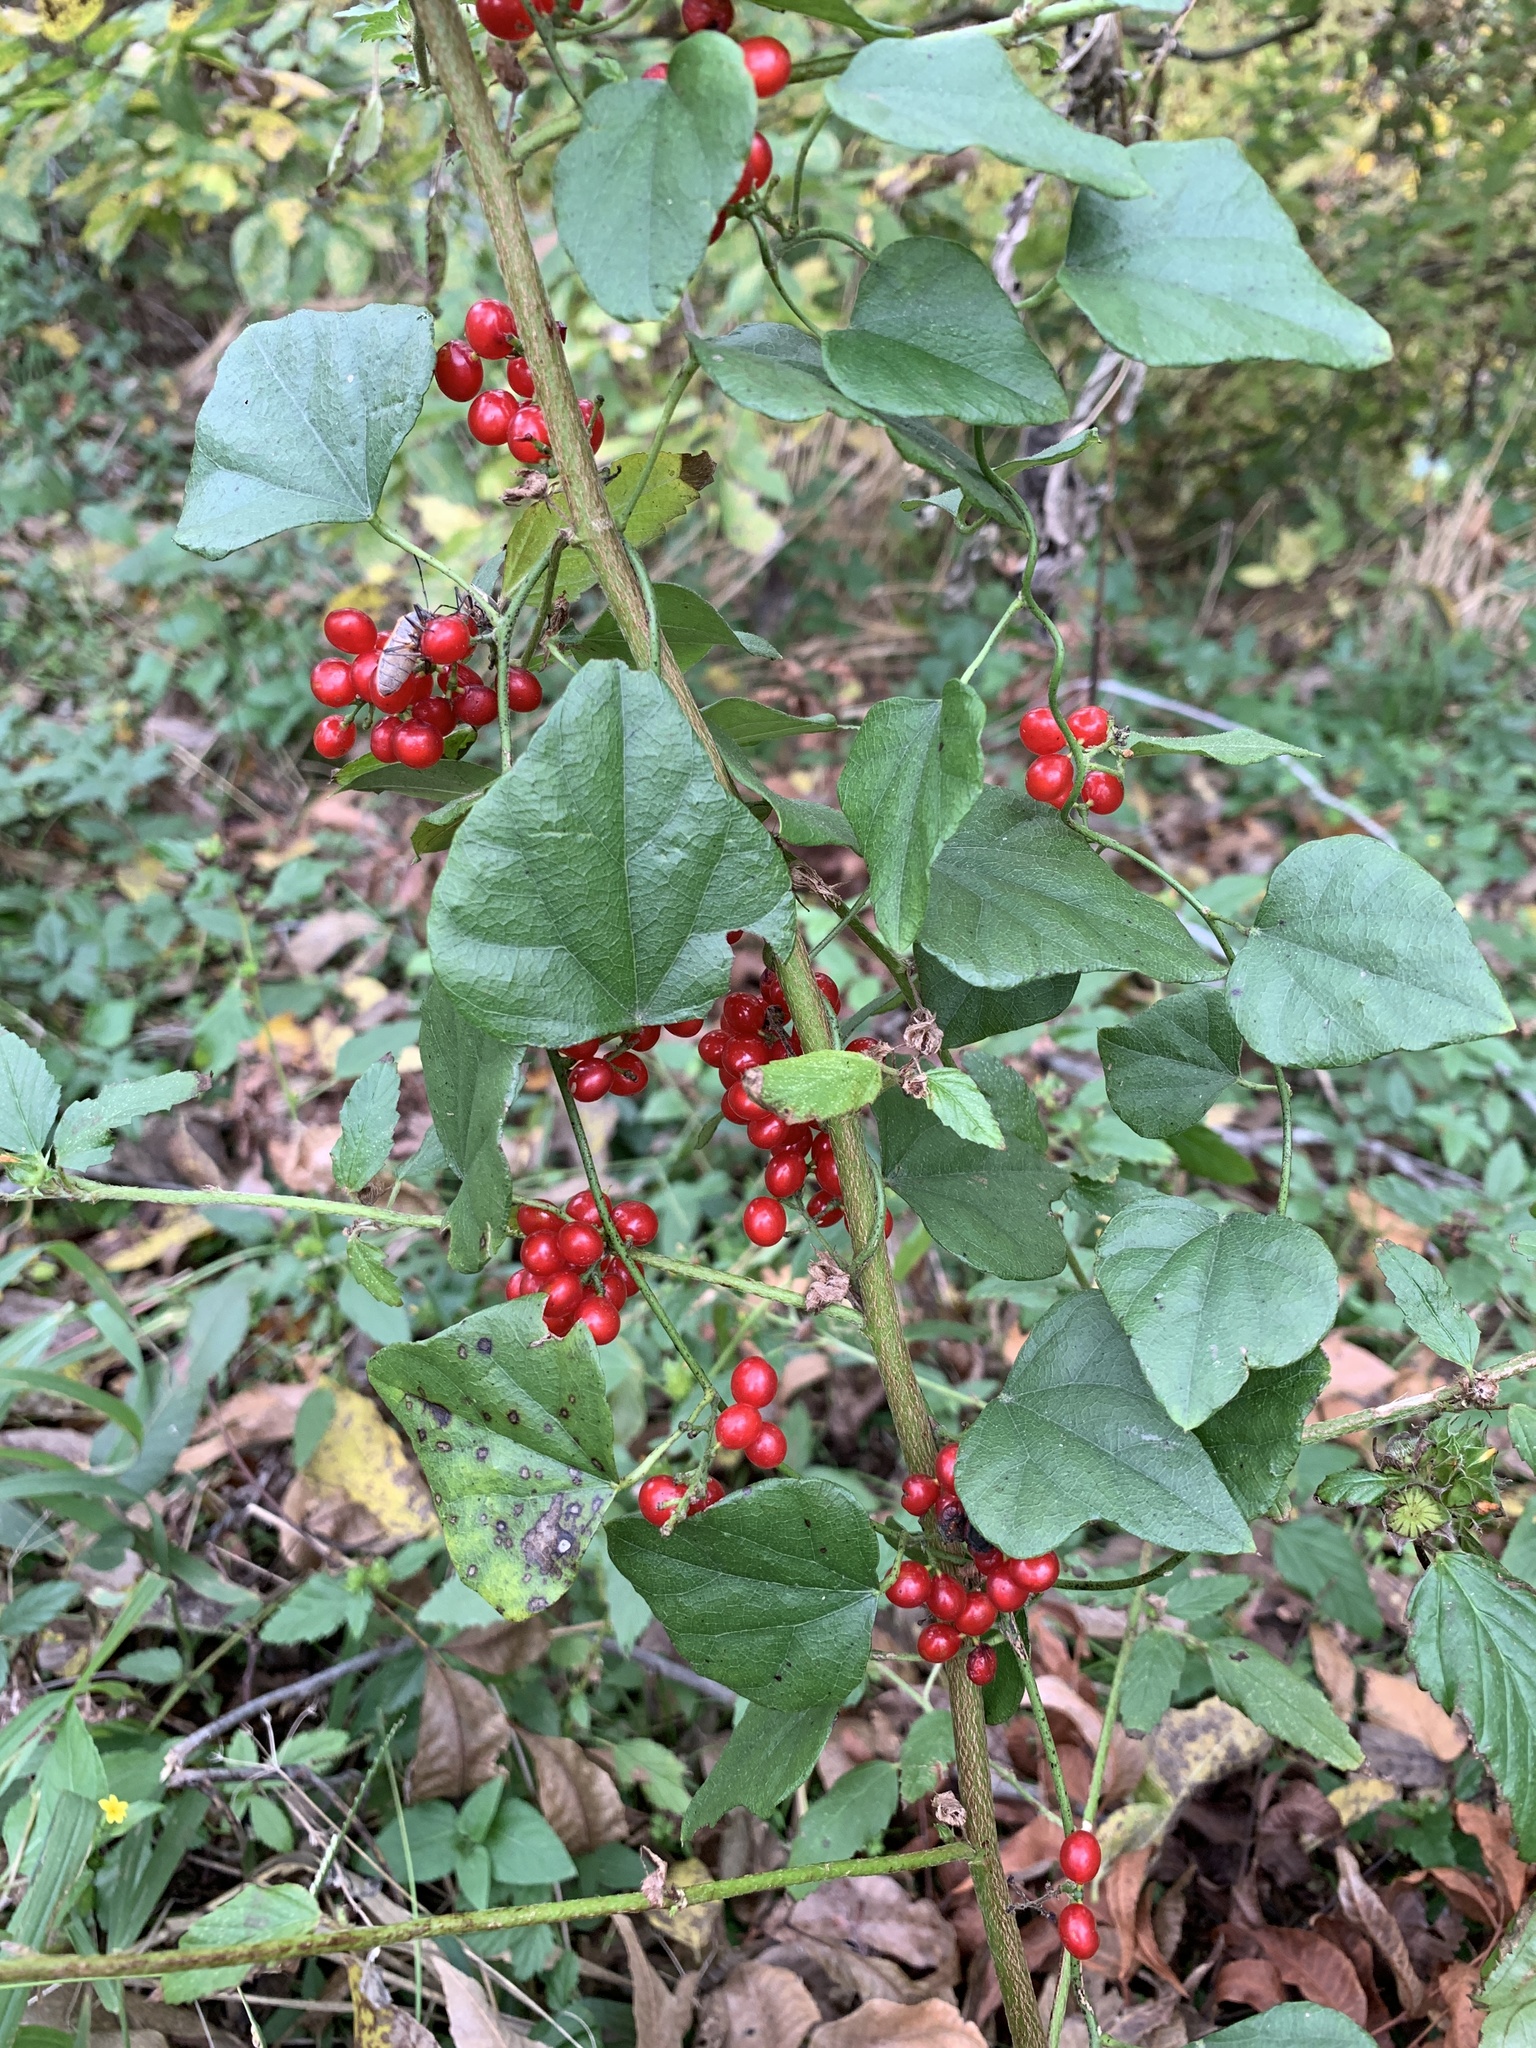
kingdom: Plantae
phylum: Tracheophyta
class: Magnoliopsida
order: Ranunculales
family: Menispermaceae
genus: Cocculus
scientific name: Cocculus carolinus
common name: Carolina moonseed
